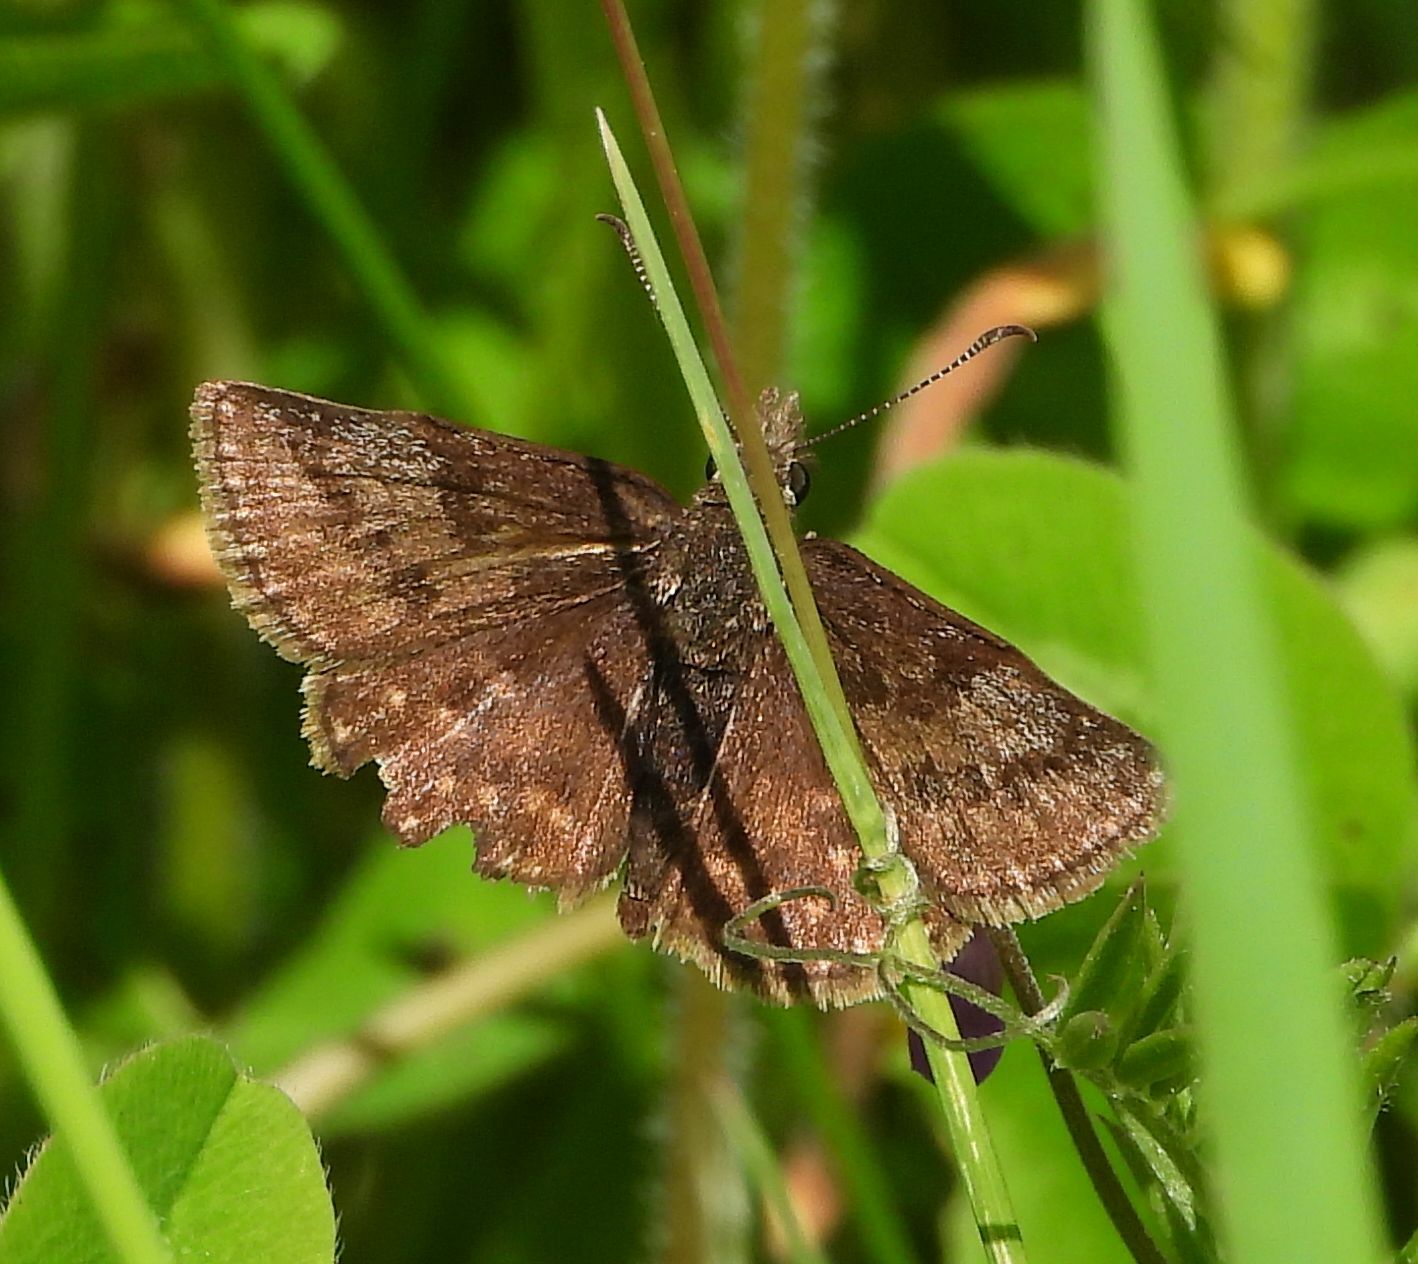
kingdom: Animalia
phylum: Arthropoda
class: Insecta
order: Lepidoptera
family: Hesperiidae
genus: Erynnis
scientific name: Erynnis icelus
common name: Dreamy duskywing
